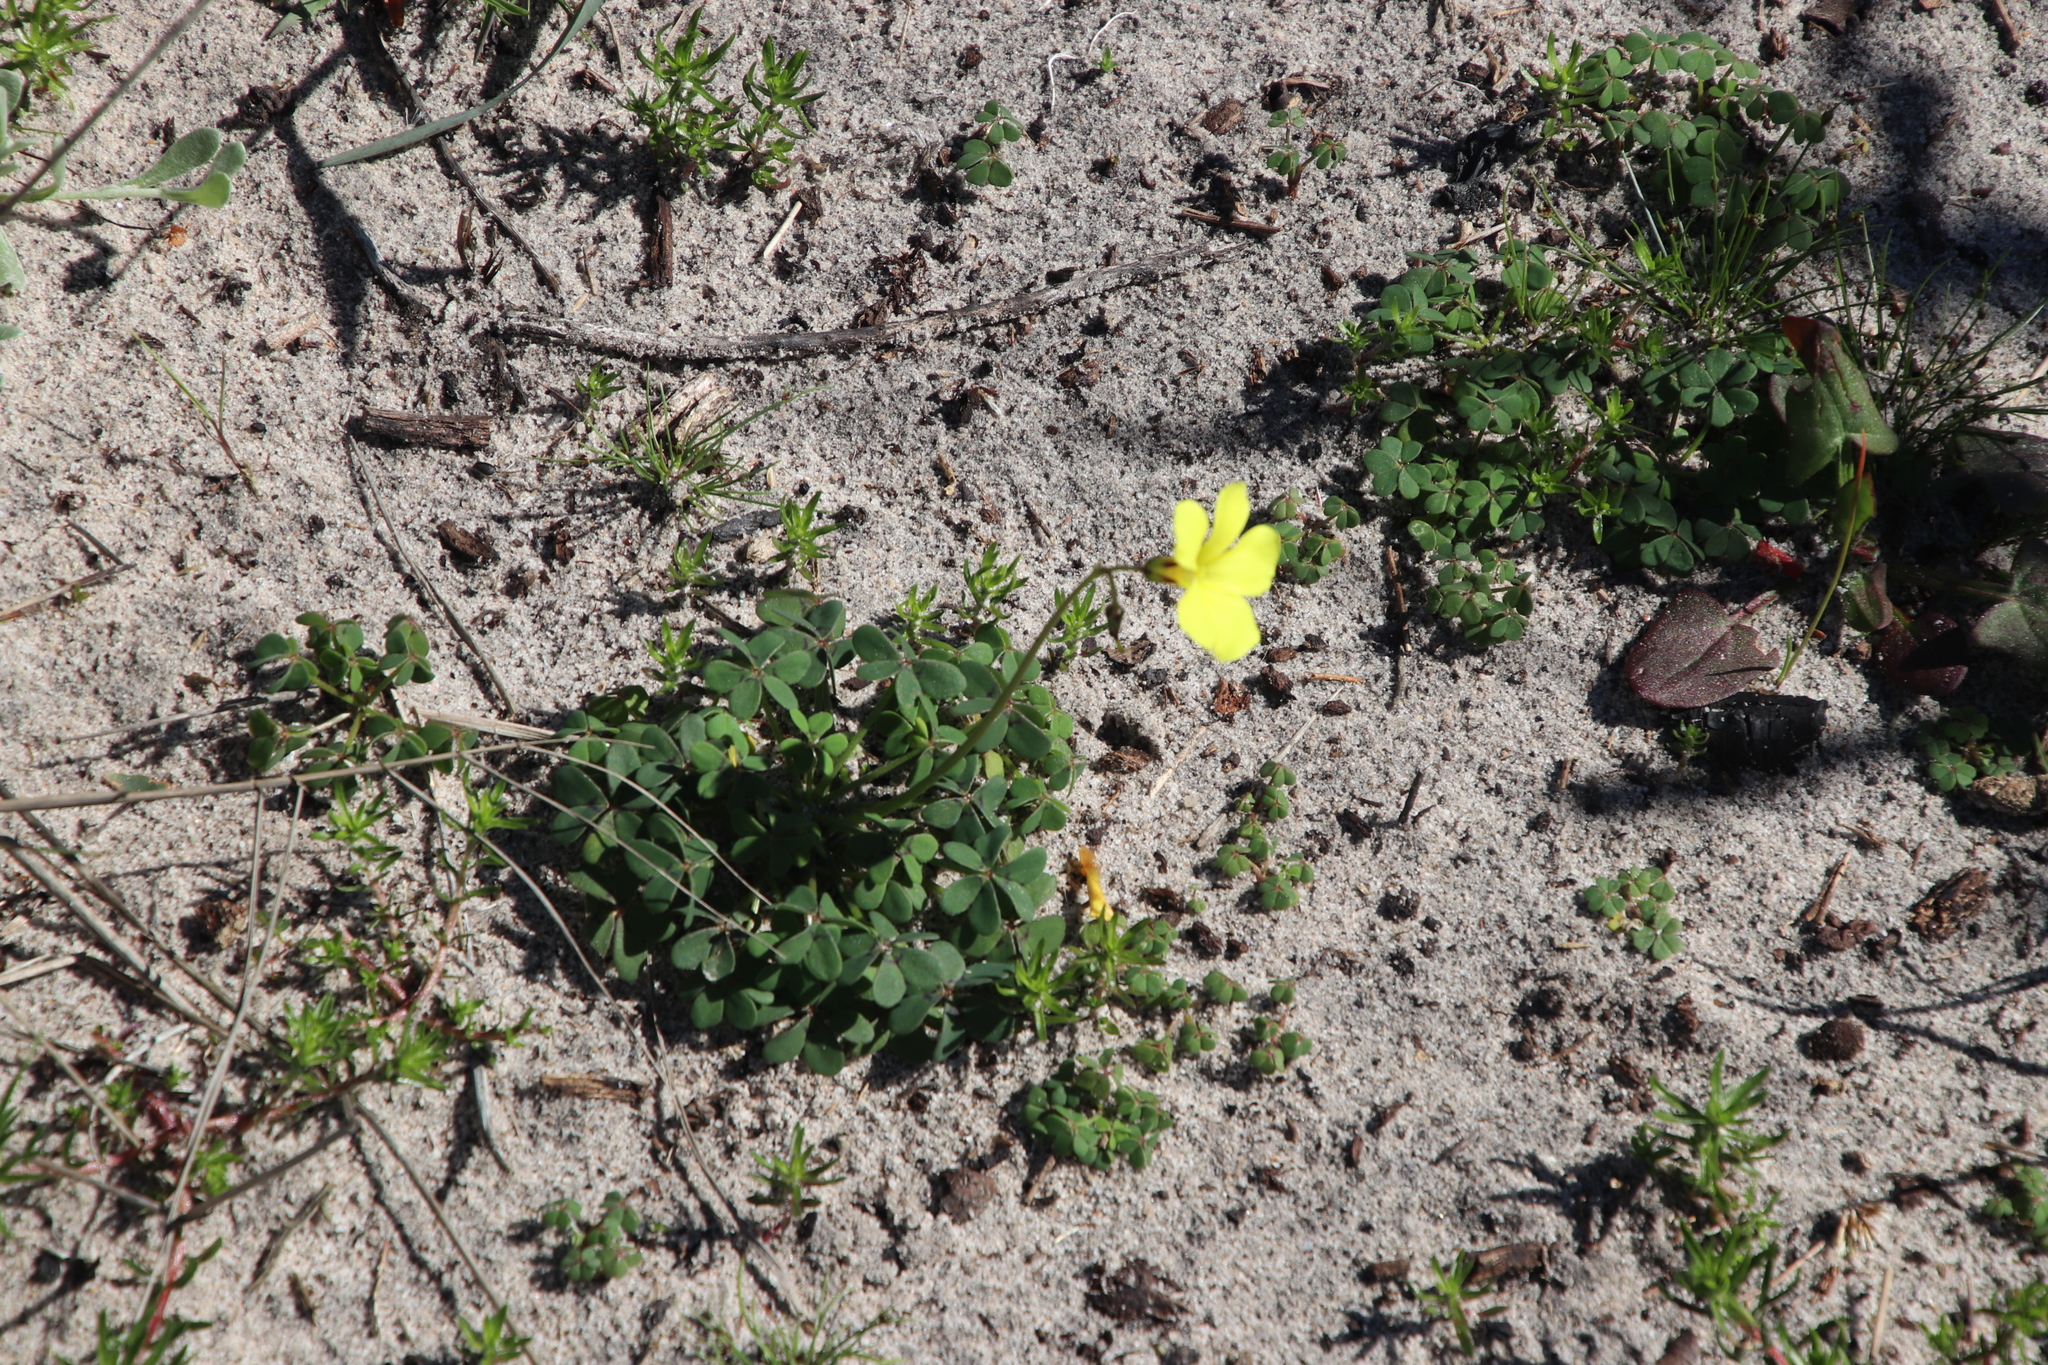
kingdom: Plantae
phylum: Tracheophyta
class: Magnoliopsida
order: Oxalidales
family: Oxalidaceae
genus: Oxalis
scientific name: Oxalis pes-caprae
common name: Bermuda-buttercup
